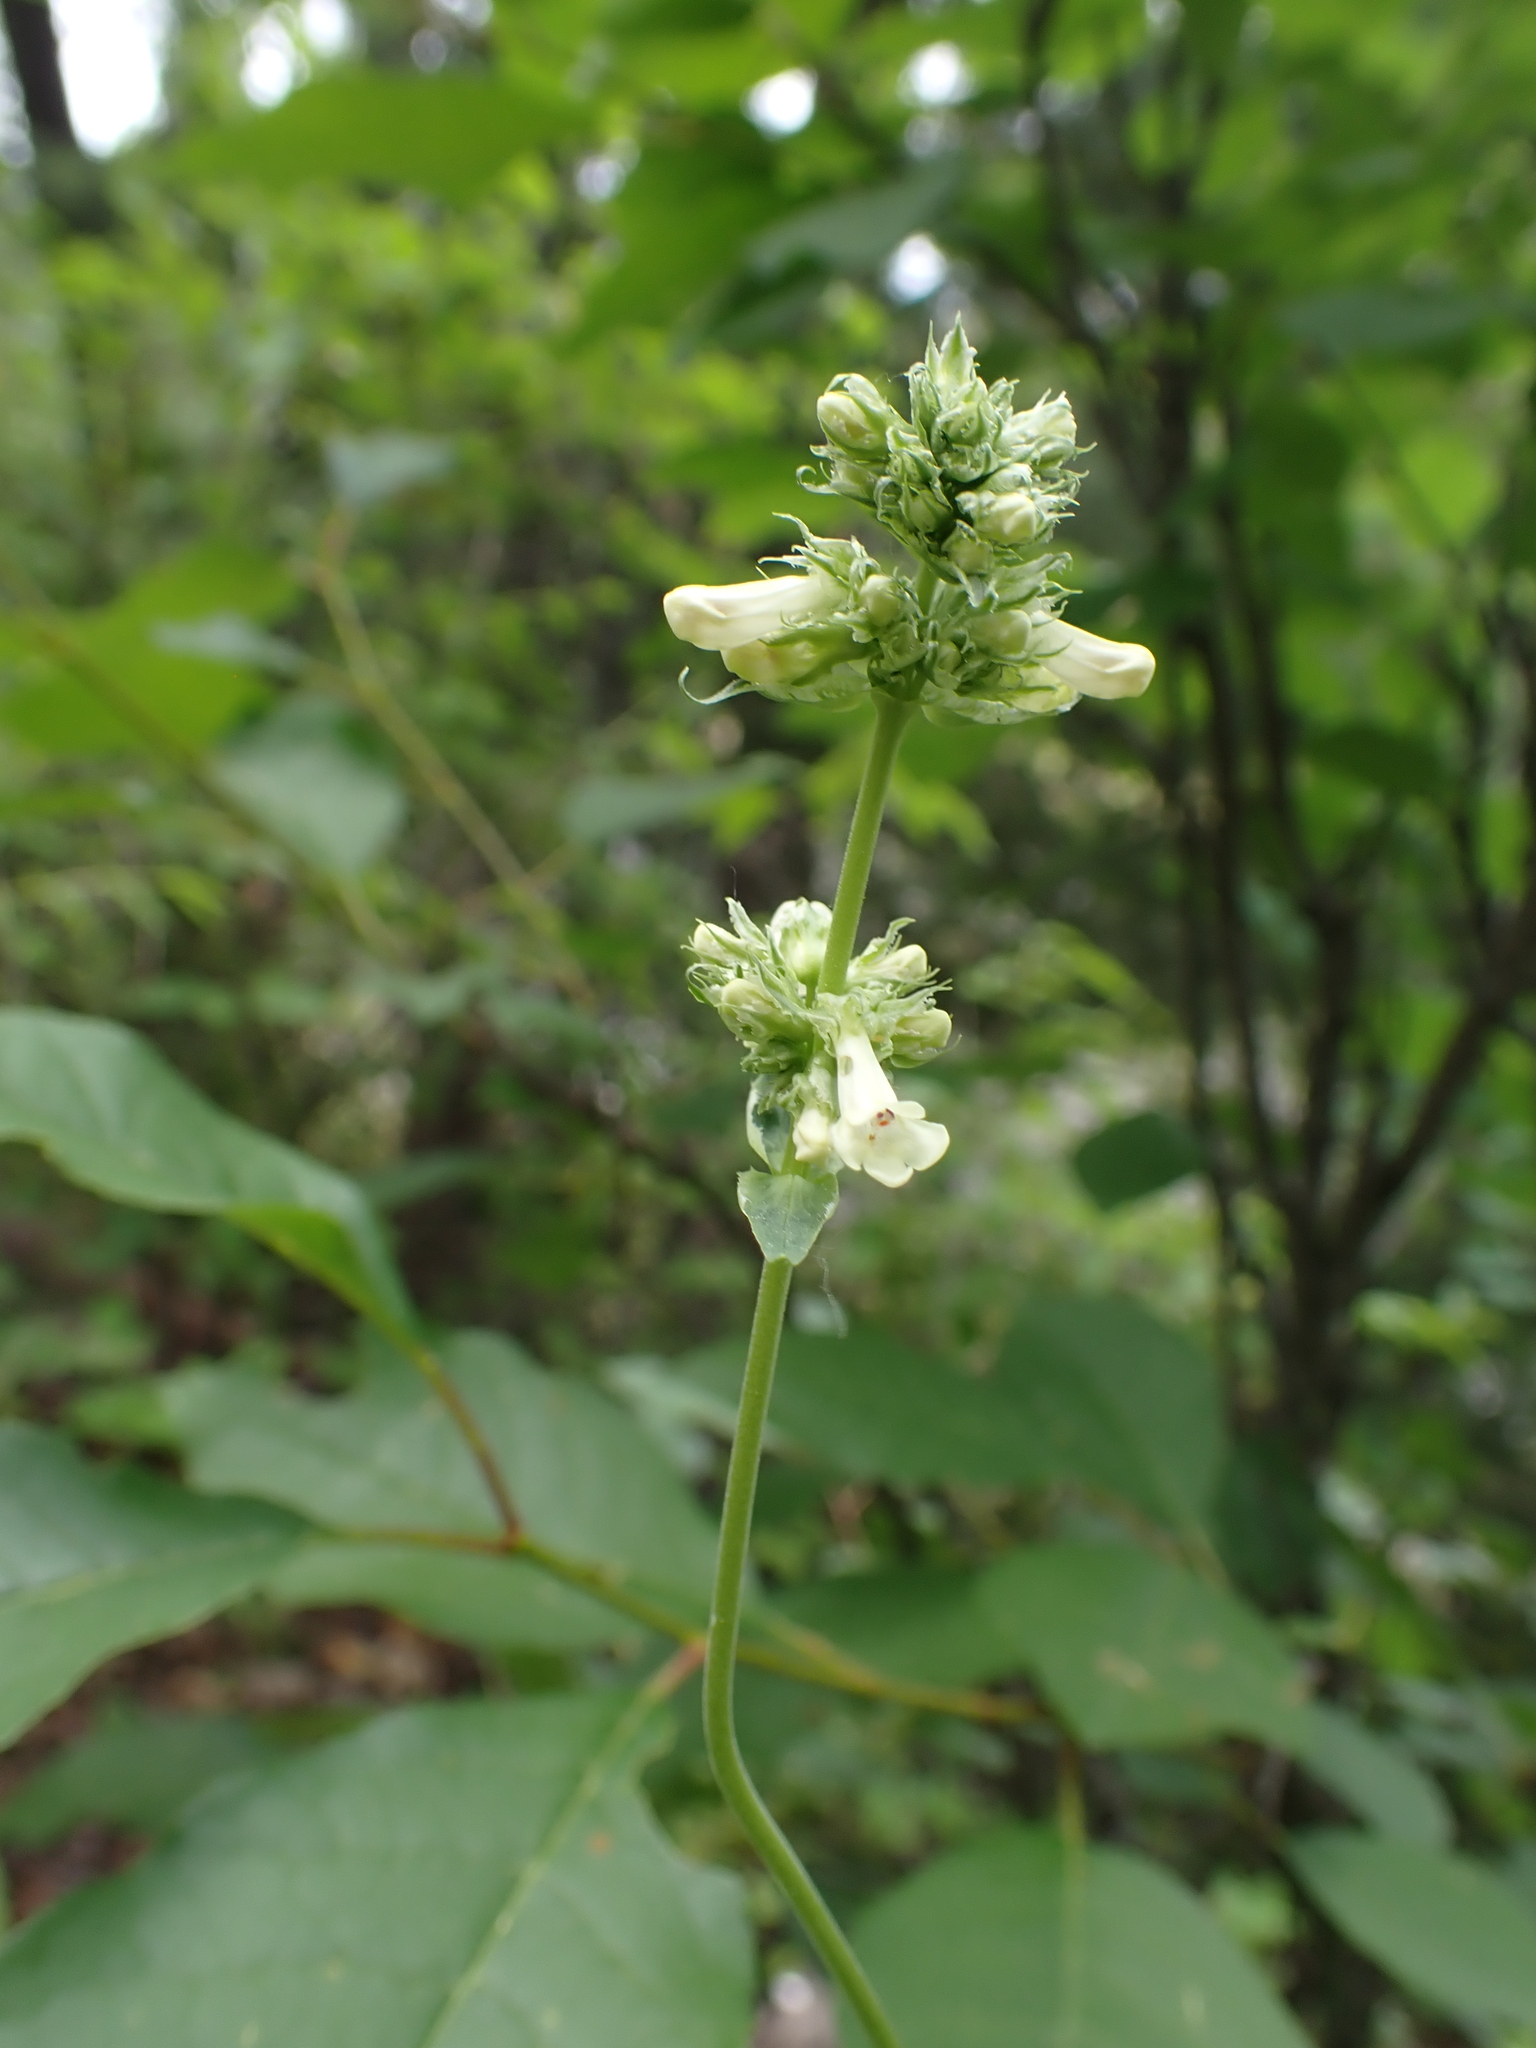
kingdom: Plantae
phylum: Tracheophyta
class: Magnoliopsida
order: Lamiales
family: Plantaginaceae
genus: Penstemon
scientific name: Penstemon confertus
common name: Lesser yellow beardtongue
